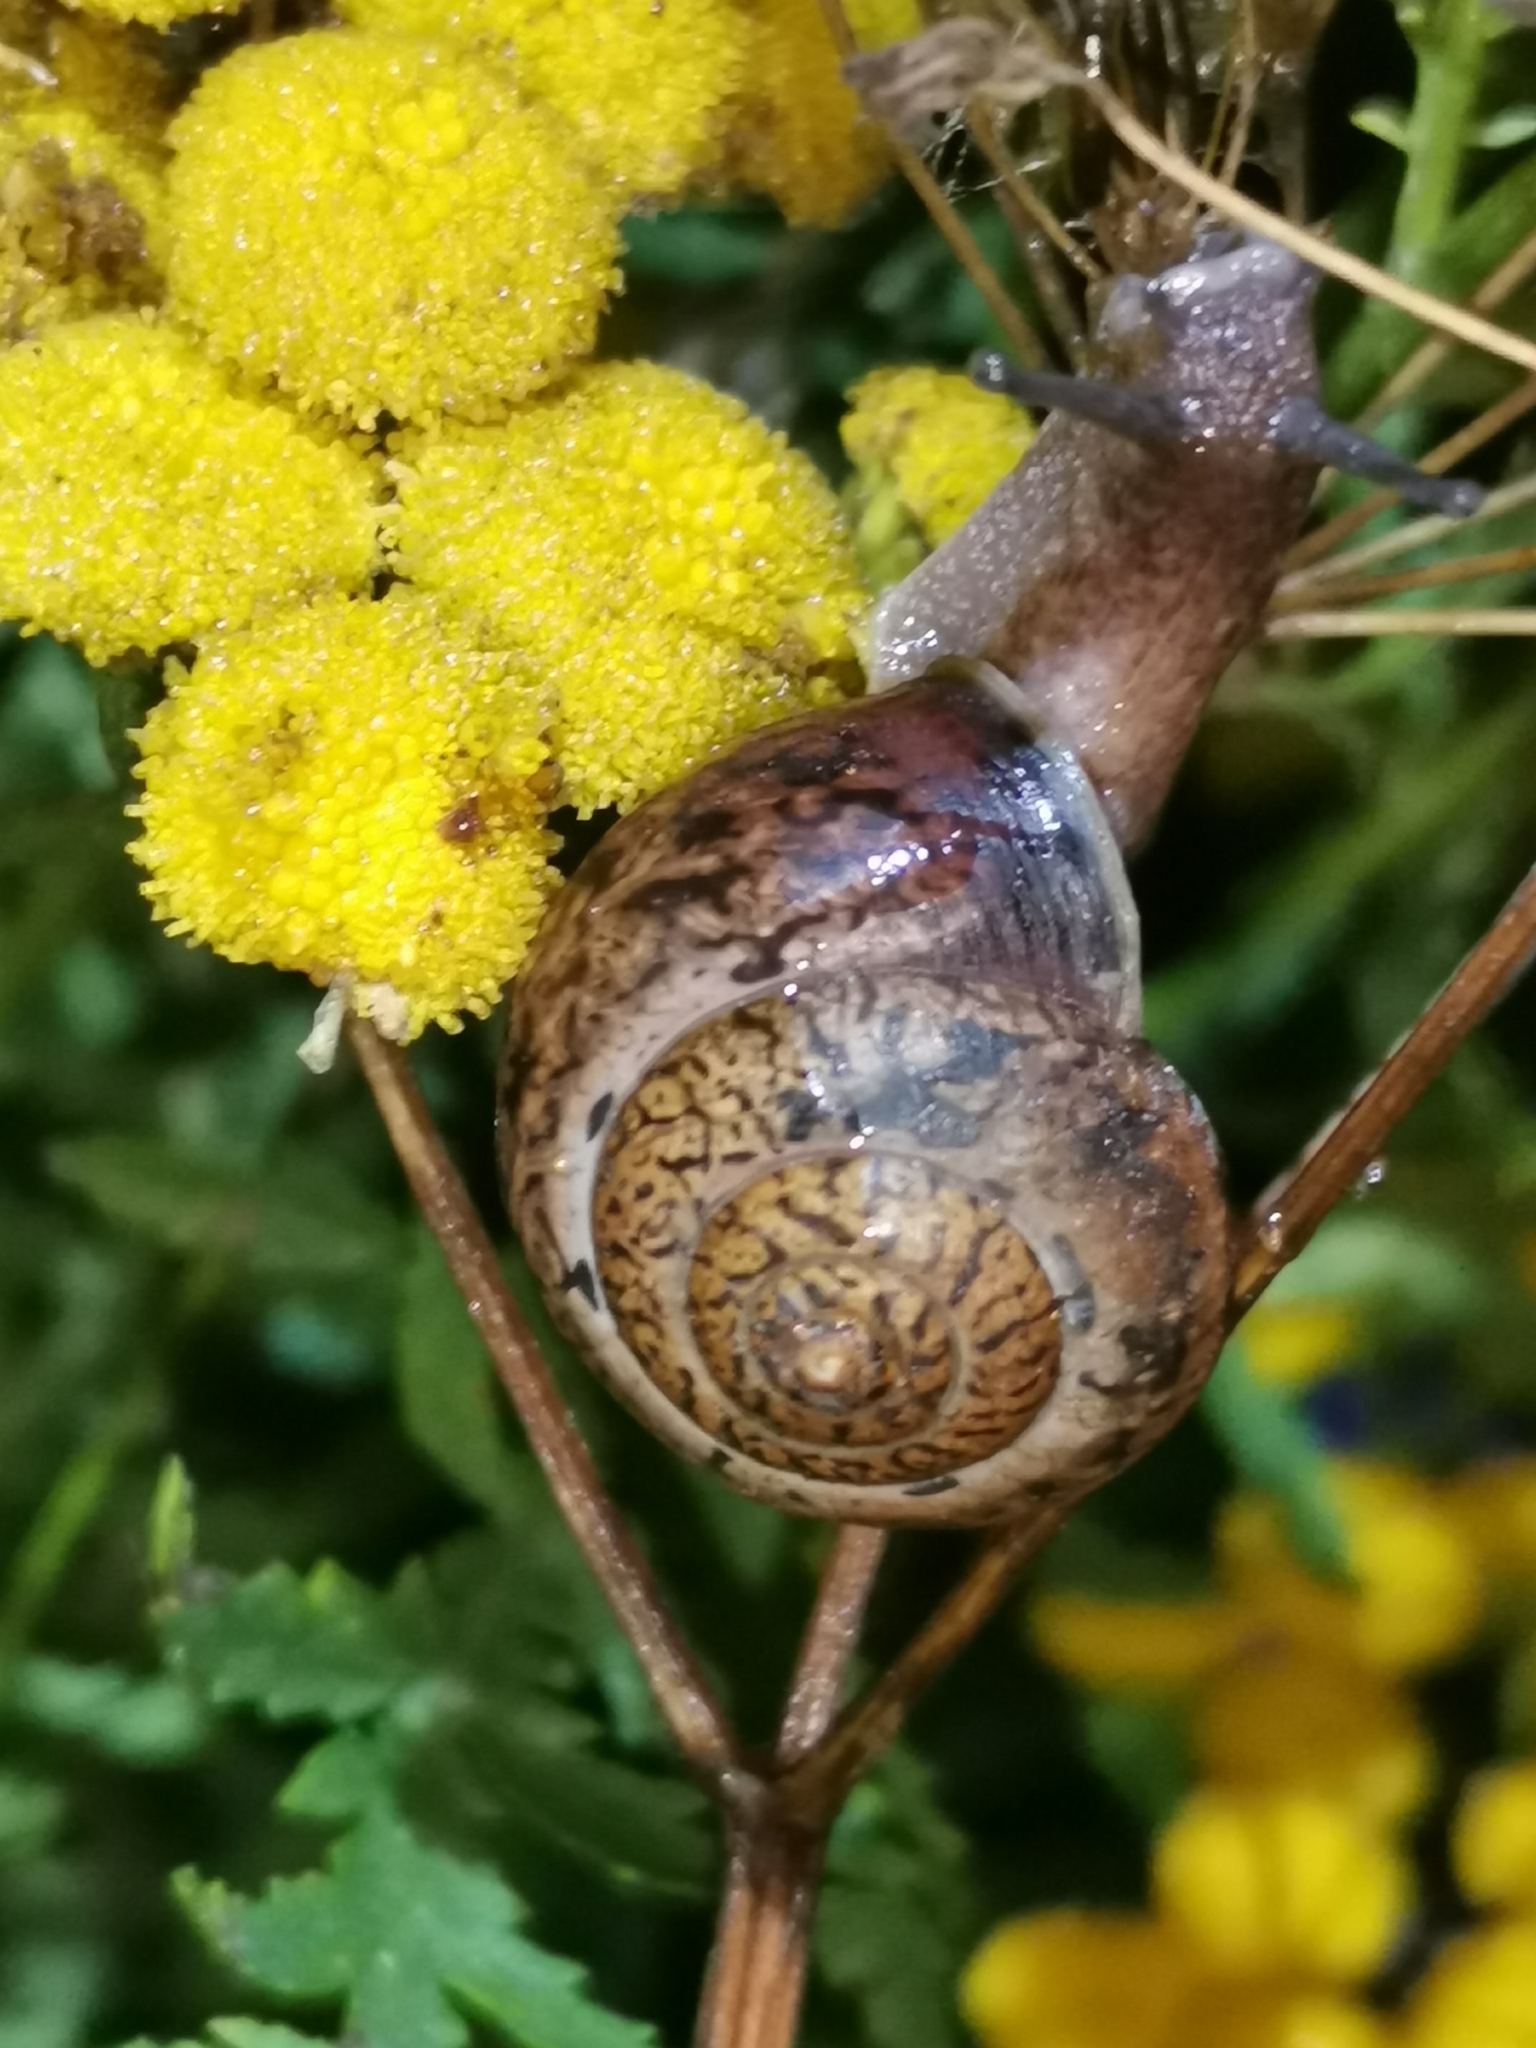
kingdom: Animalia
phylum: Mollusca
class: Gastropoda
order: Stylommatophora
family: Camaenidae
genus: Fruticicola
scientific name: Fruticicola fruticum
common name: Bush snail
